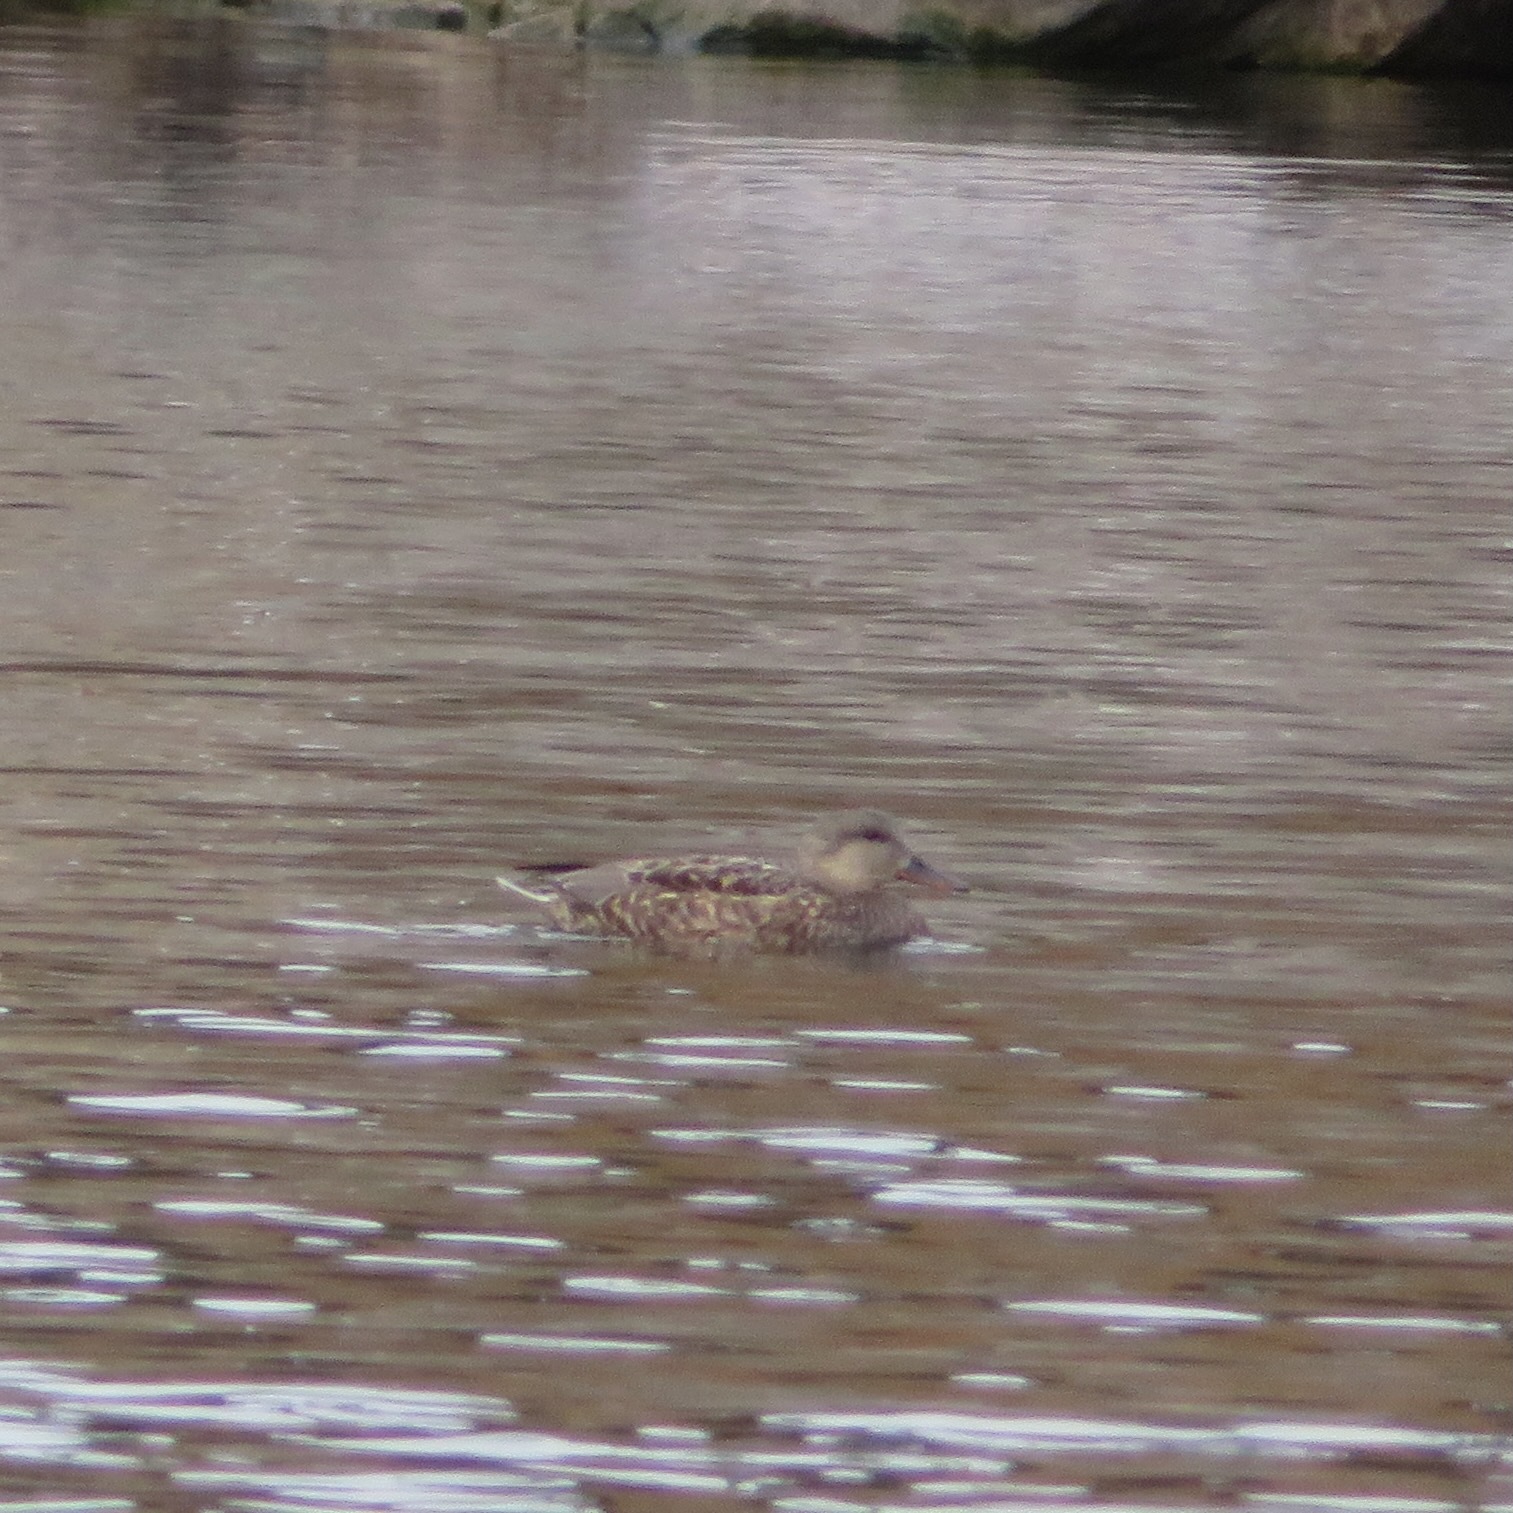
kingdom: Animalia
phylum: Chordata
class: Aves
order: Anseriformes
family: Anatidae
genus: Mareca
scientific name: Mareca strepera
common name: Gadwall
